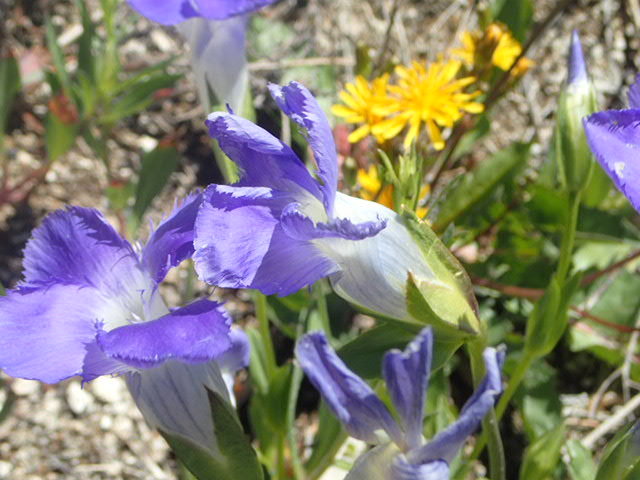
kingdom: Plantae
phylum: Tracheophyta
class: Magnoliopsida
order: Gentianales
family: Gentianaceae
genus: Gentianopsis
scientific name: Gentianopsis thermalis
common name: Rocky mountain fringed-gentian
